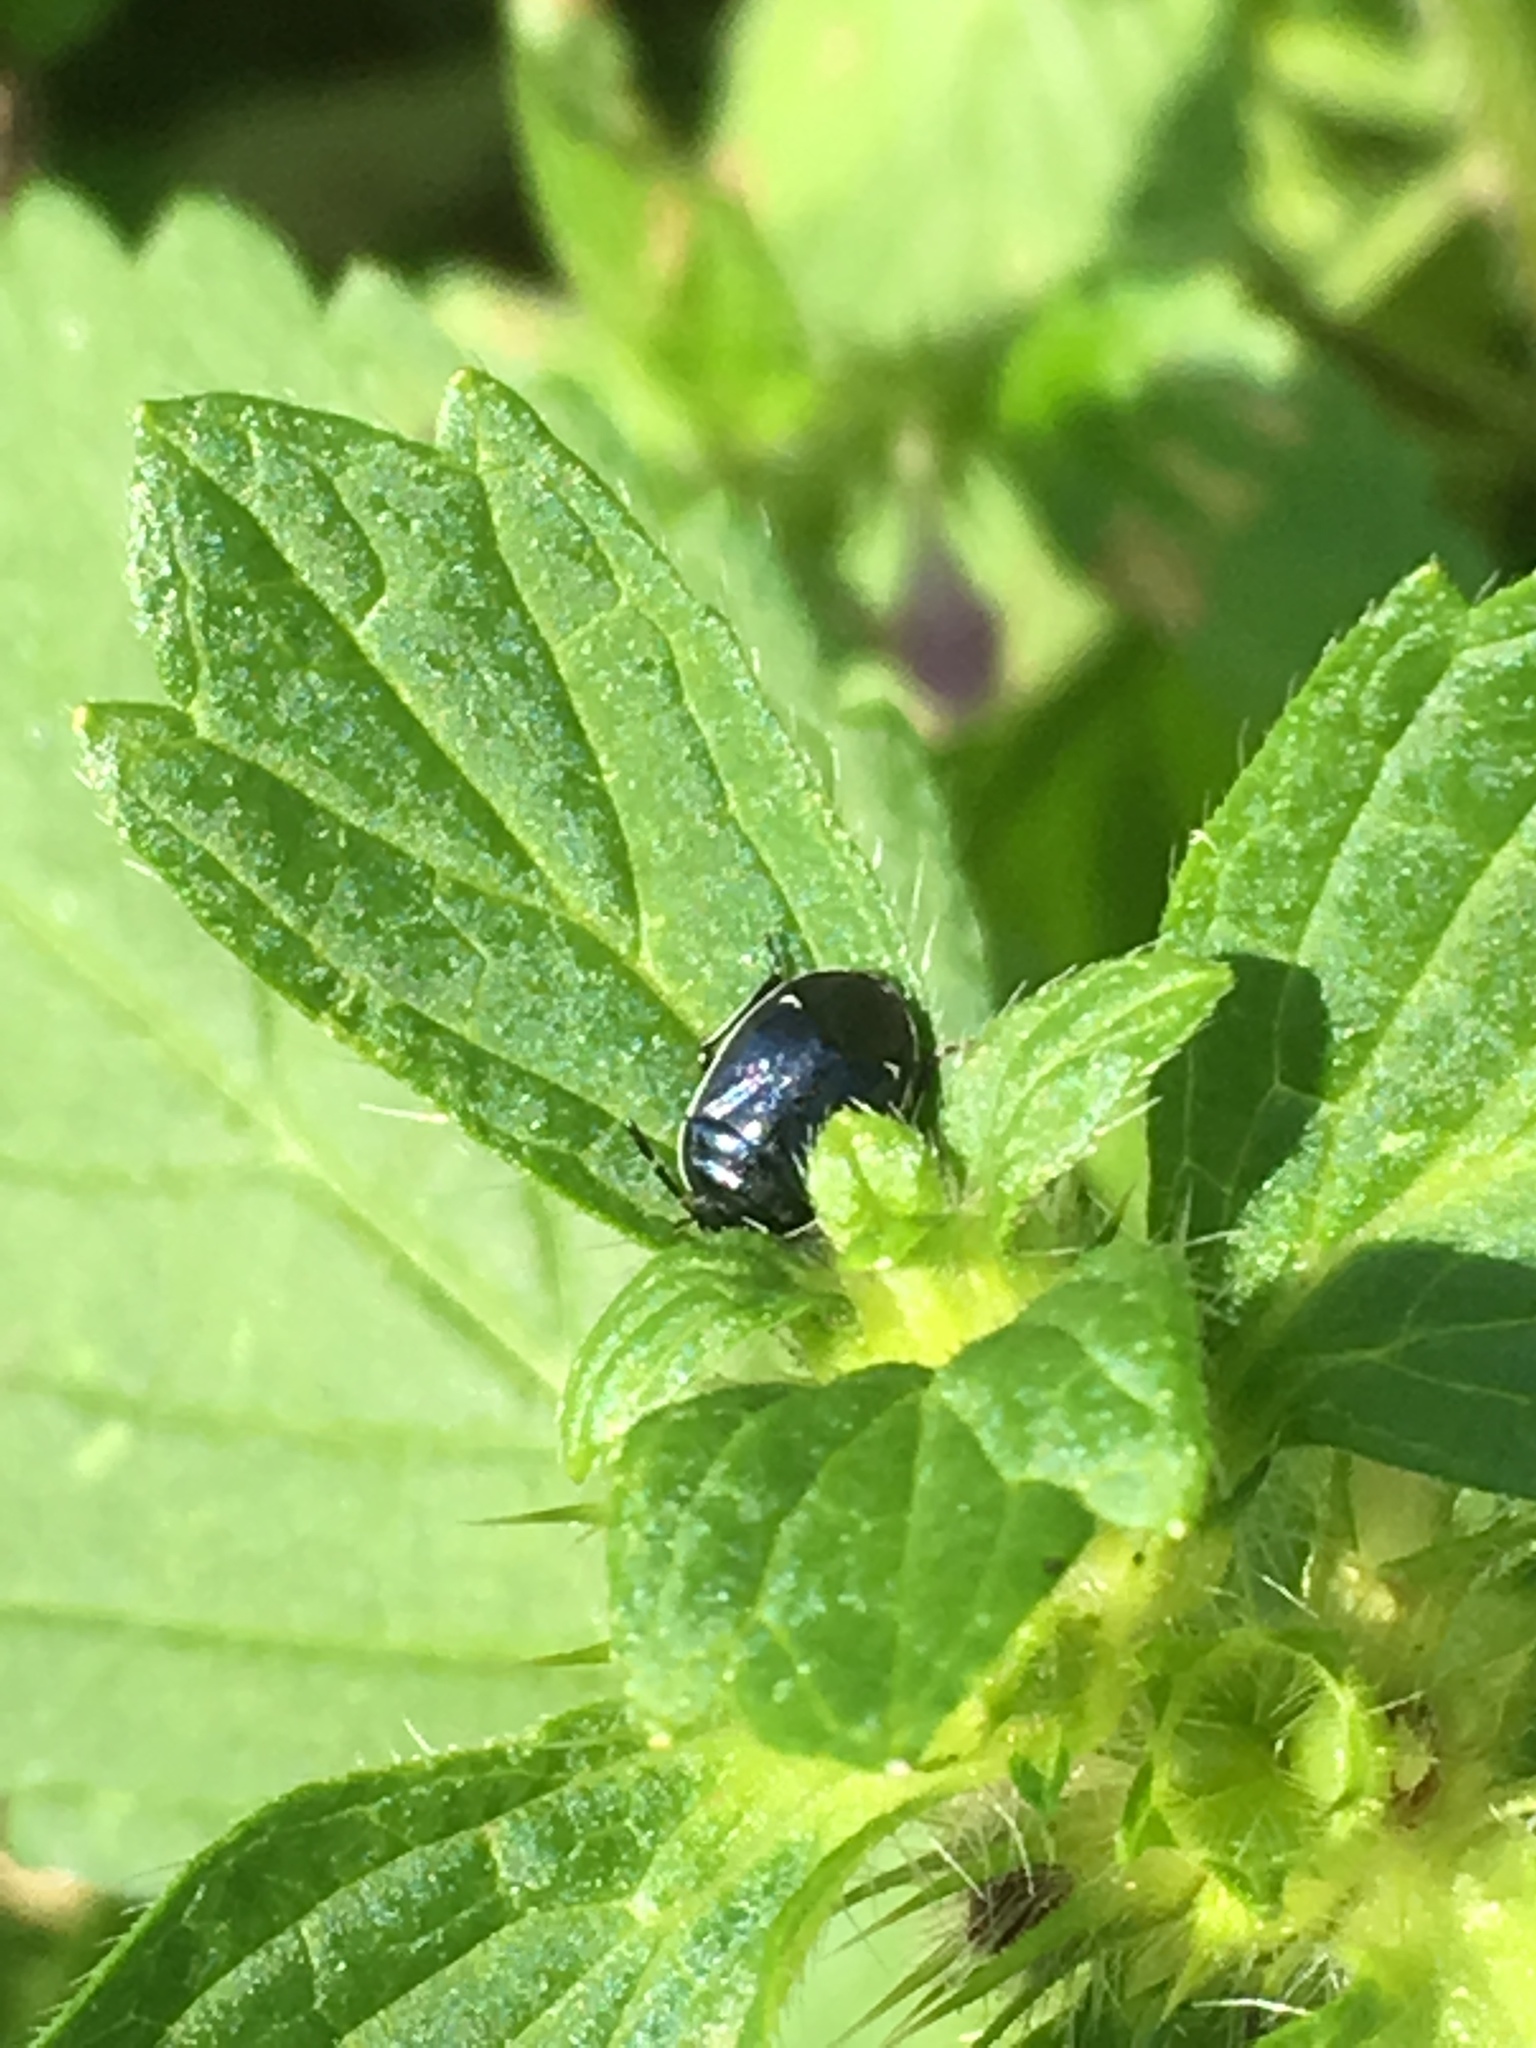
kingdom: Animalia
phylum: Arthropoda
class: Insecta
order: Hemiptera
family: Cydnidae
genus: Sehirus
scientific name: Sehirus cinctus
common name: White-margined burrower bug
